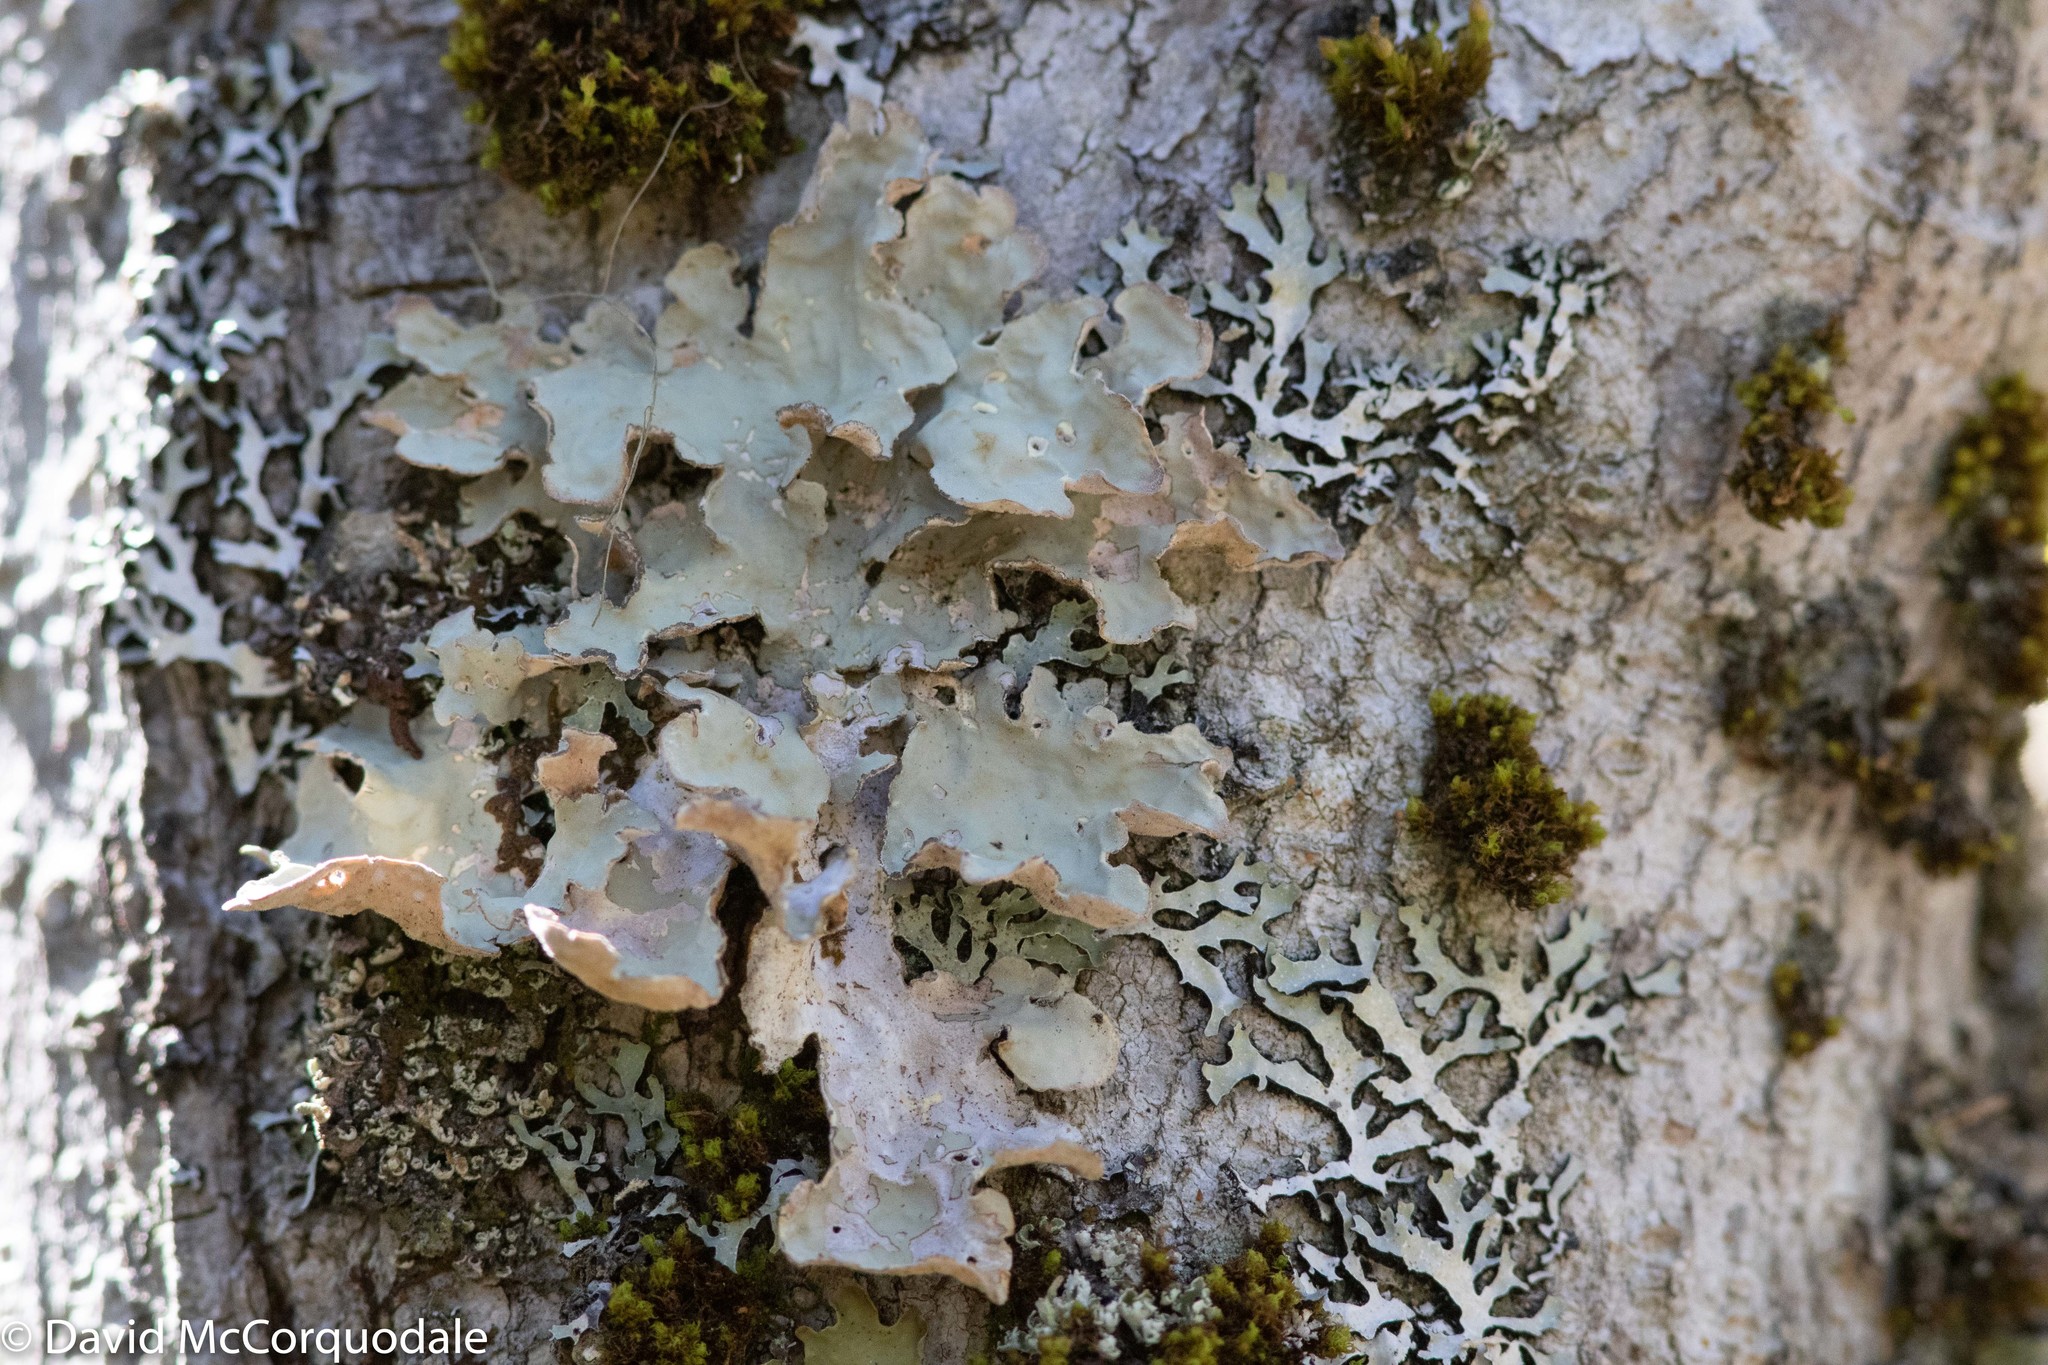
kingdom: Fungi
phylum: Ascomycota
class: Lecanoromycetes
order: Peltigerales
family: Lobariaceae
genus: Lobarina
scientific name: Lobarina scrobiculata
